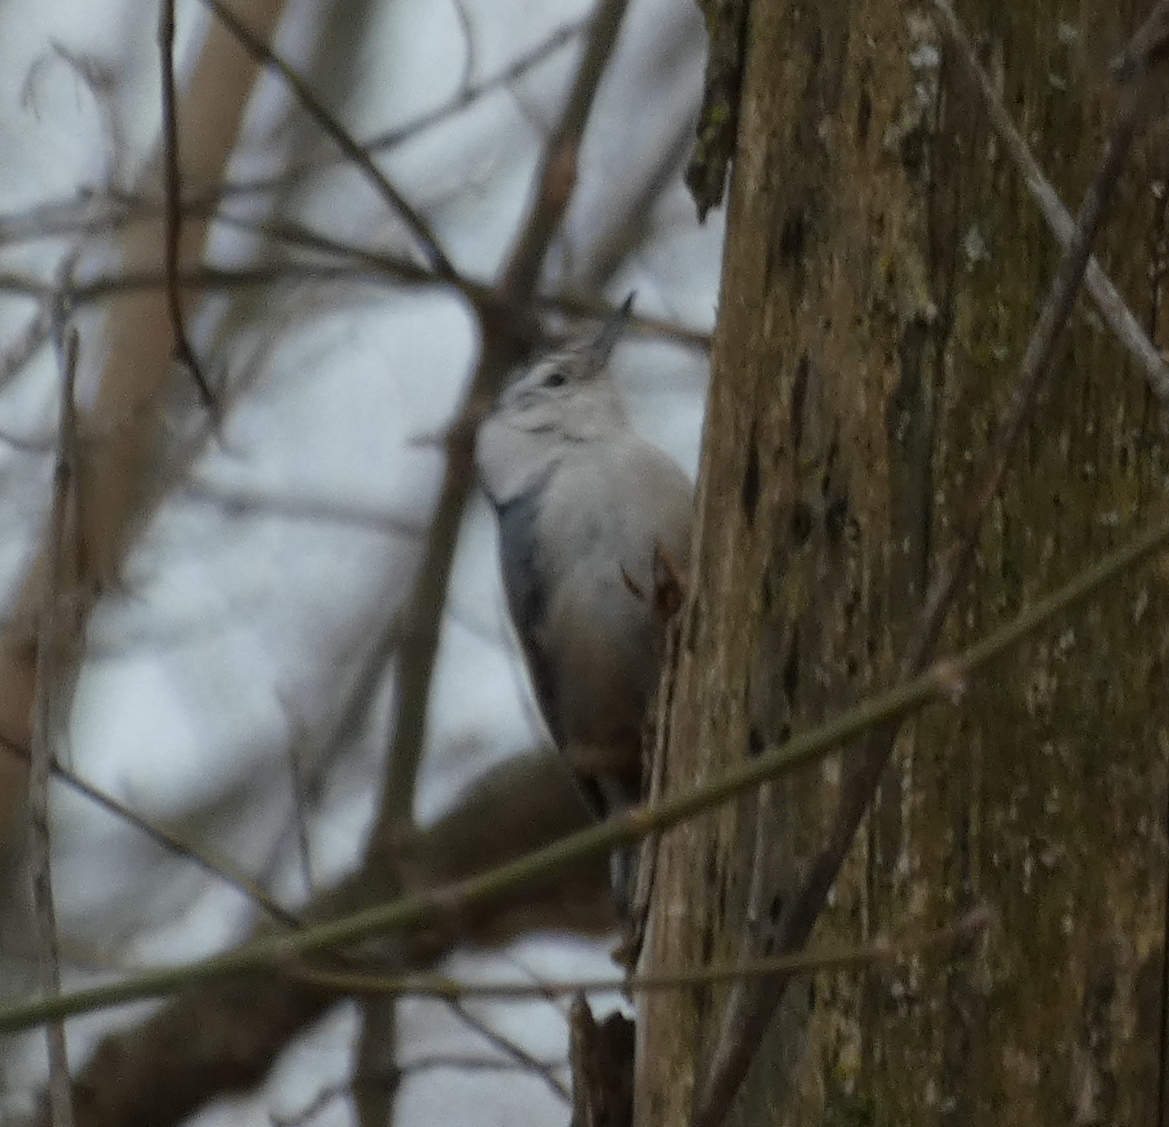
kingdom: Animalia
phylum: Chordata
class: Aves
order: Passeriformes
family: Sittidae
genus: Sitta
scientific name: Sitta carolinensis
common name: White-breasted nuthatch
